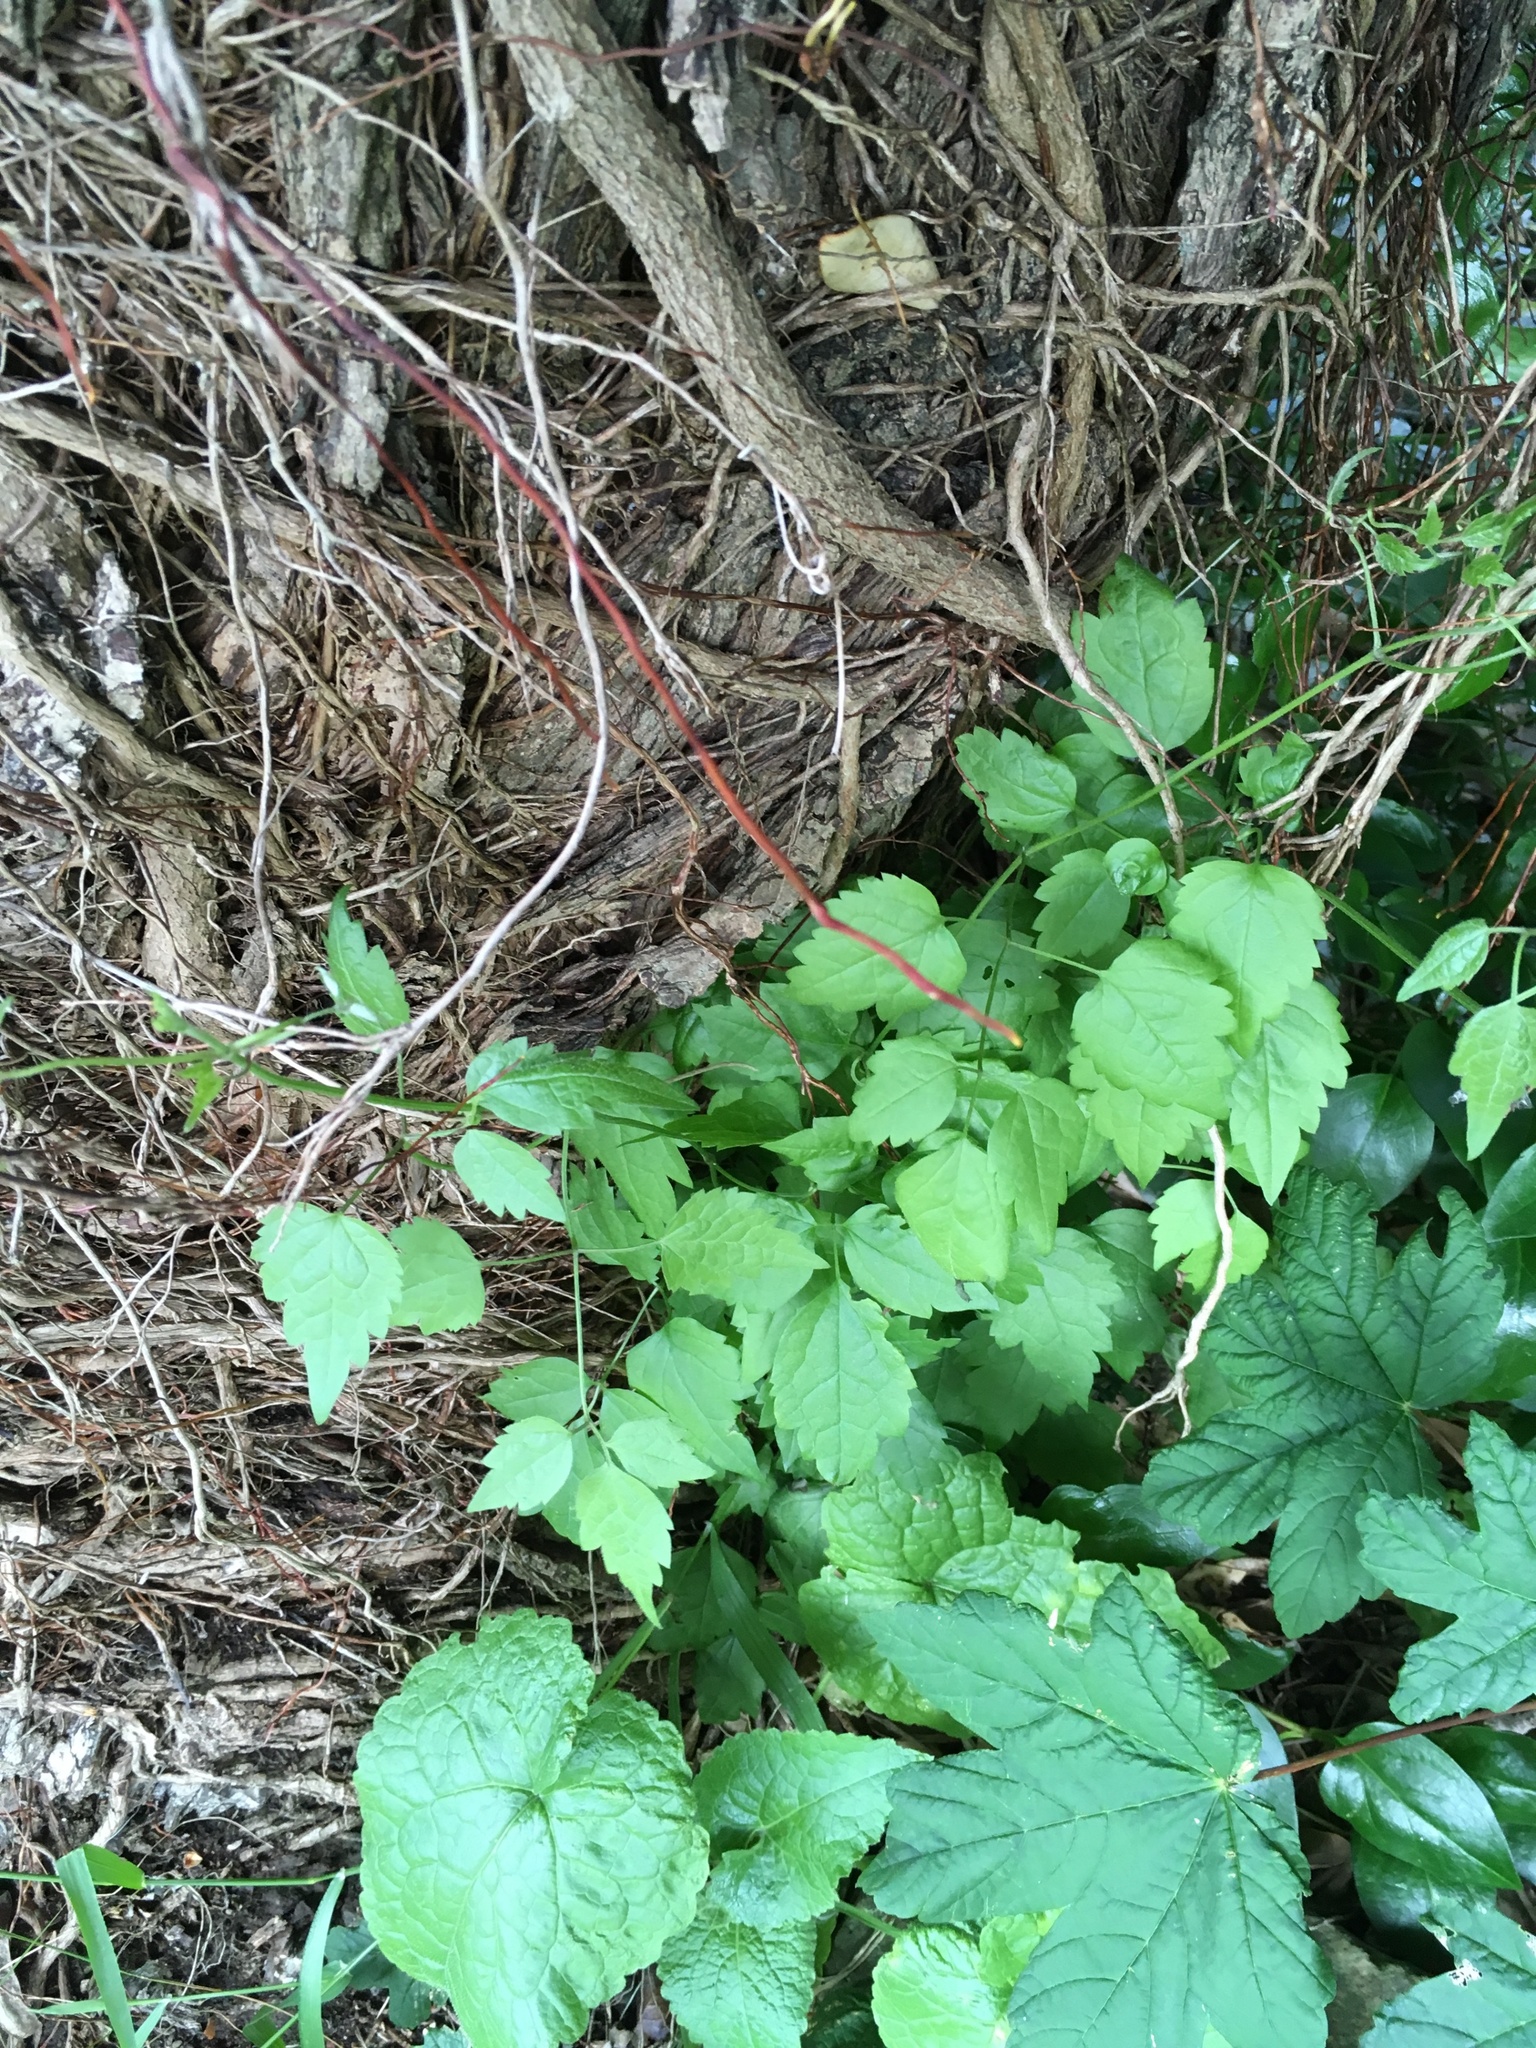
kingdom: Plantae
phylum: Tracheophyta
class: Magnoliopsida
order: Ranunculales
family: Ranunculaceae
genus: Clematis
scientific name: Clematis vitalba
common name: Evergreen clematis
